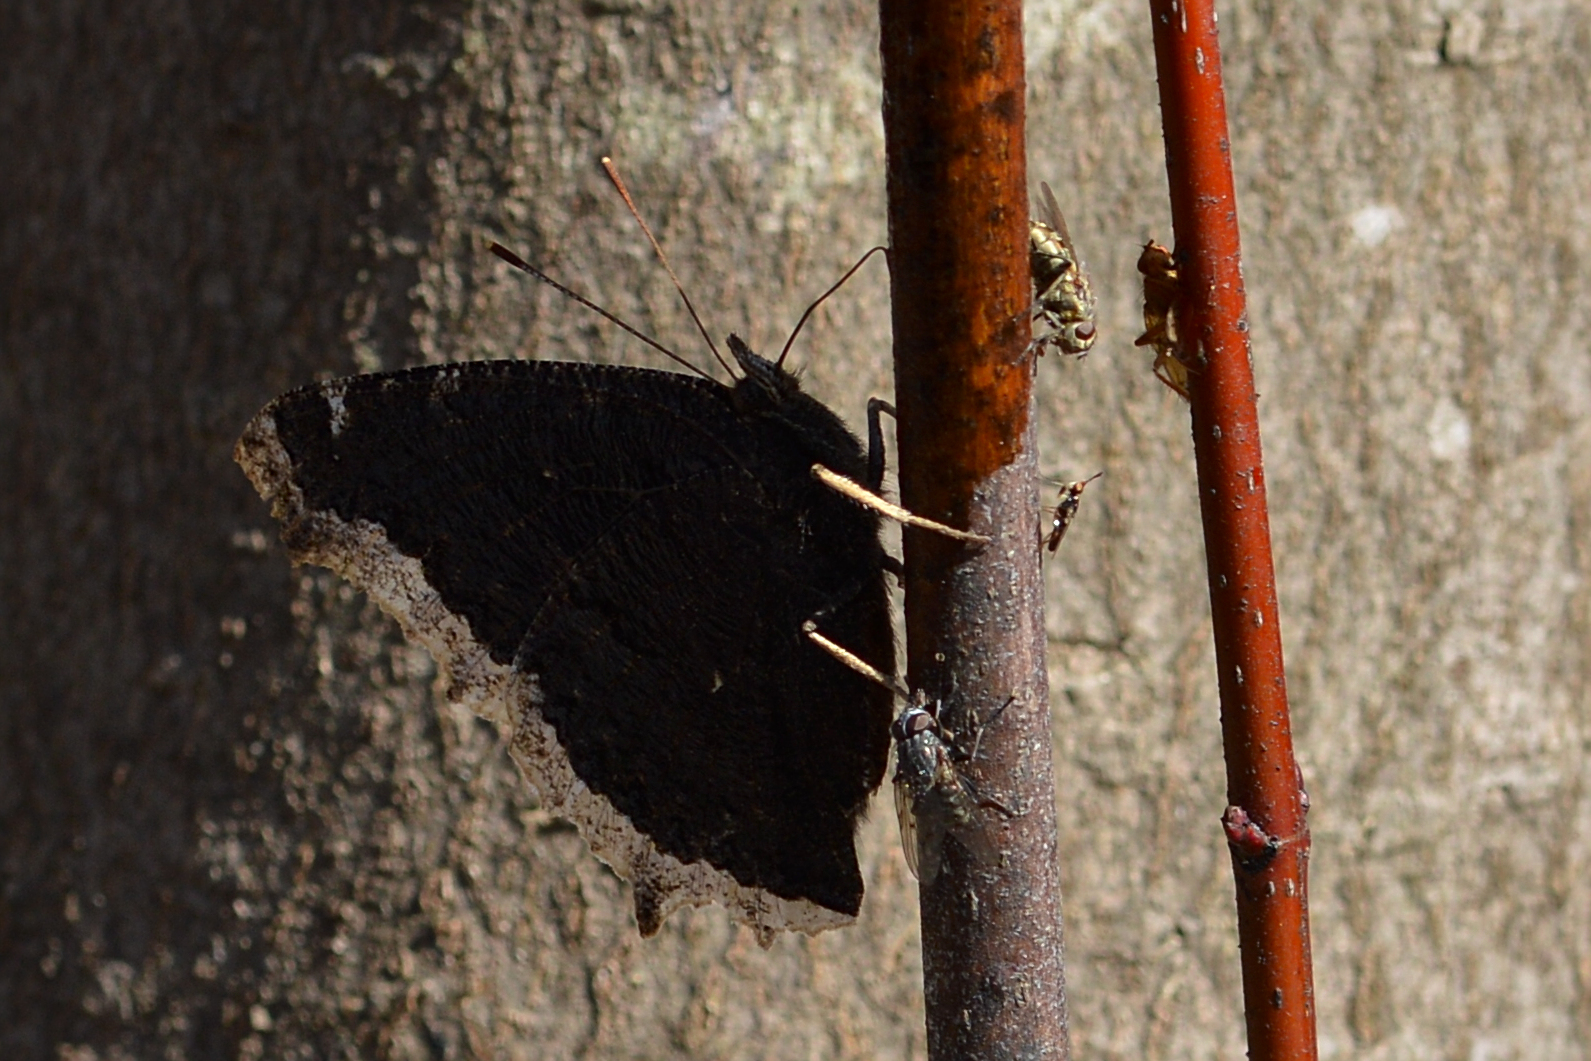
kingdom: Animalia
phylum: Arthropoda
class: Insecta
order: Lepidoptera
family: Nymphalidae
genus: Nymphalis
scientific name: Nymphalis antiopa
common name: Camberwell beauty
